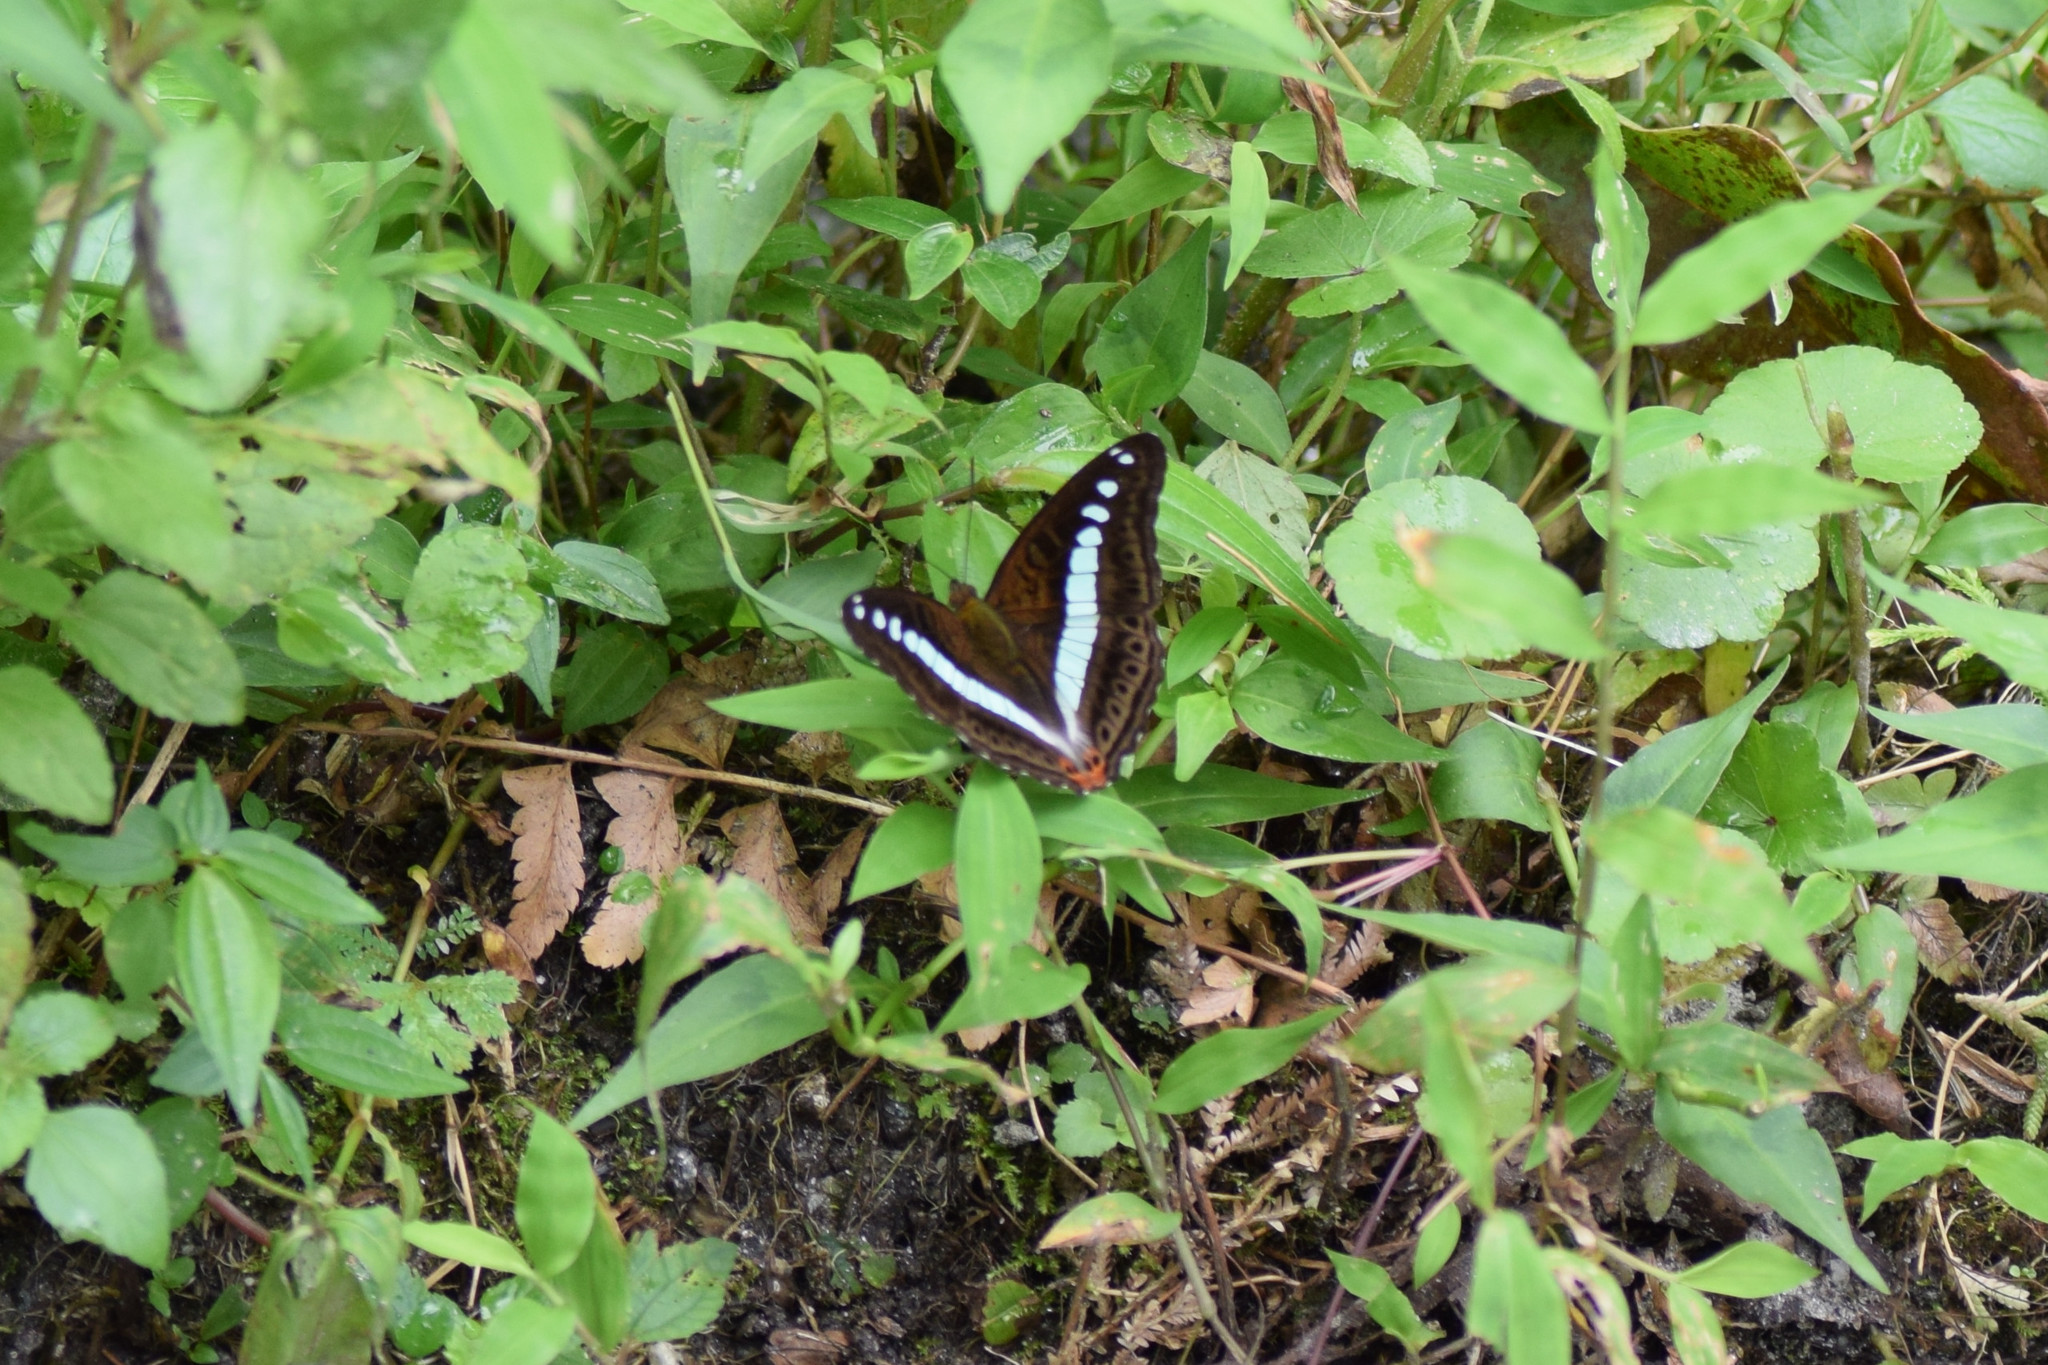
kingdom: Animalia
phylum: Arthropoda
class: Insecta
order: Lepidoptera
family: Nymphalidae
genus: Limenitis
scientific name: Limenitis Sumalia daraxa
